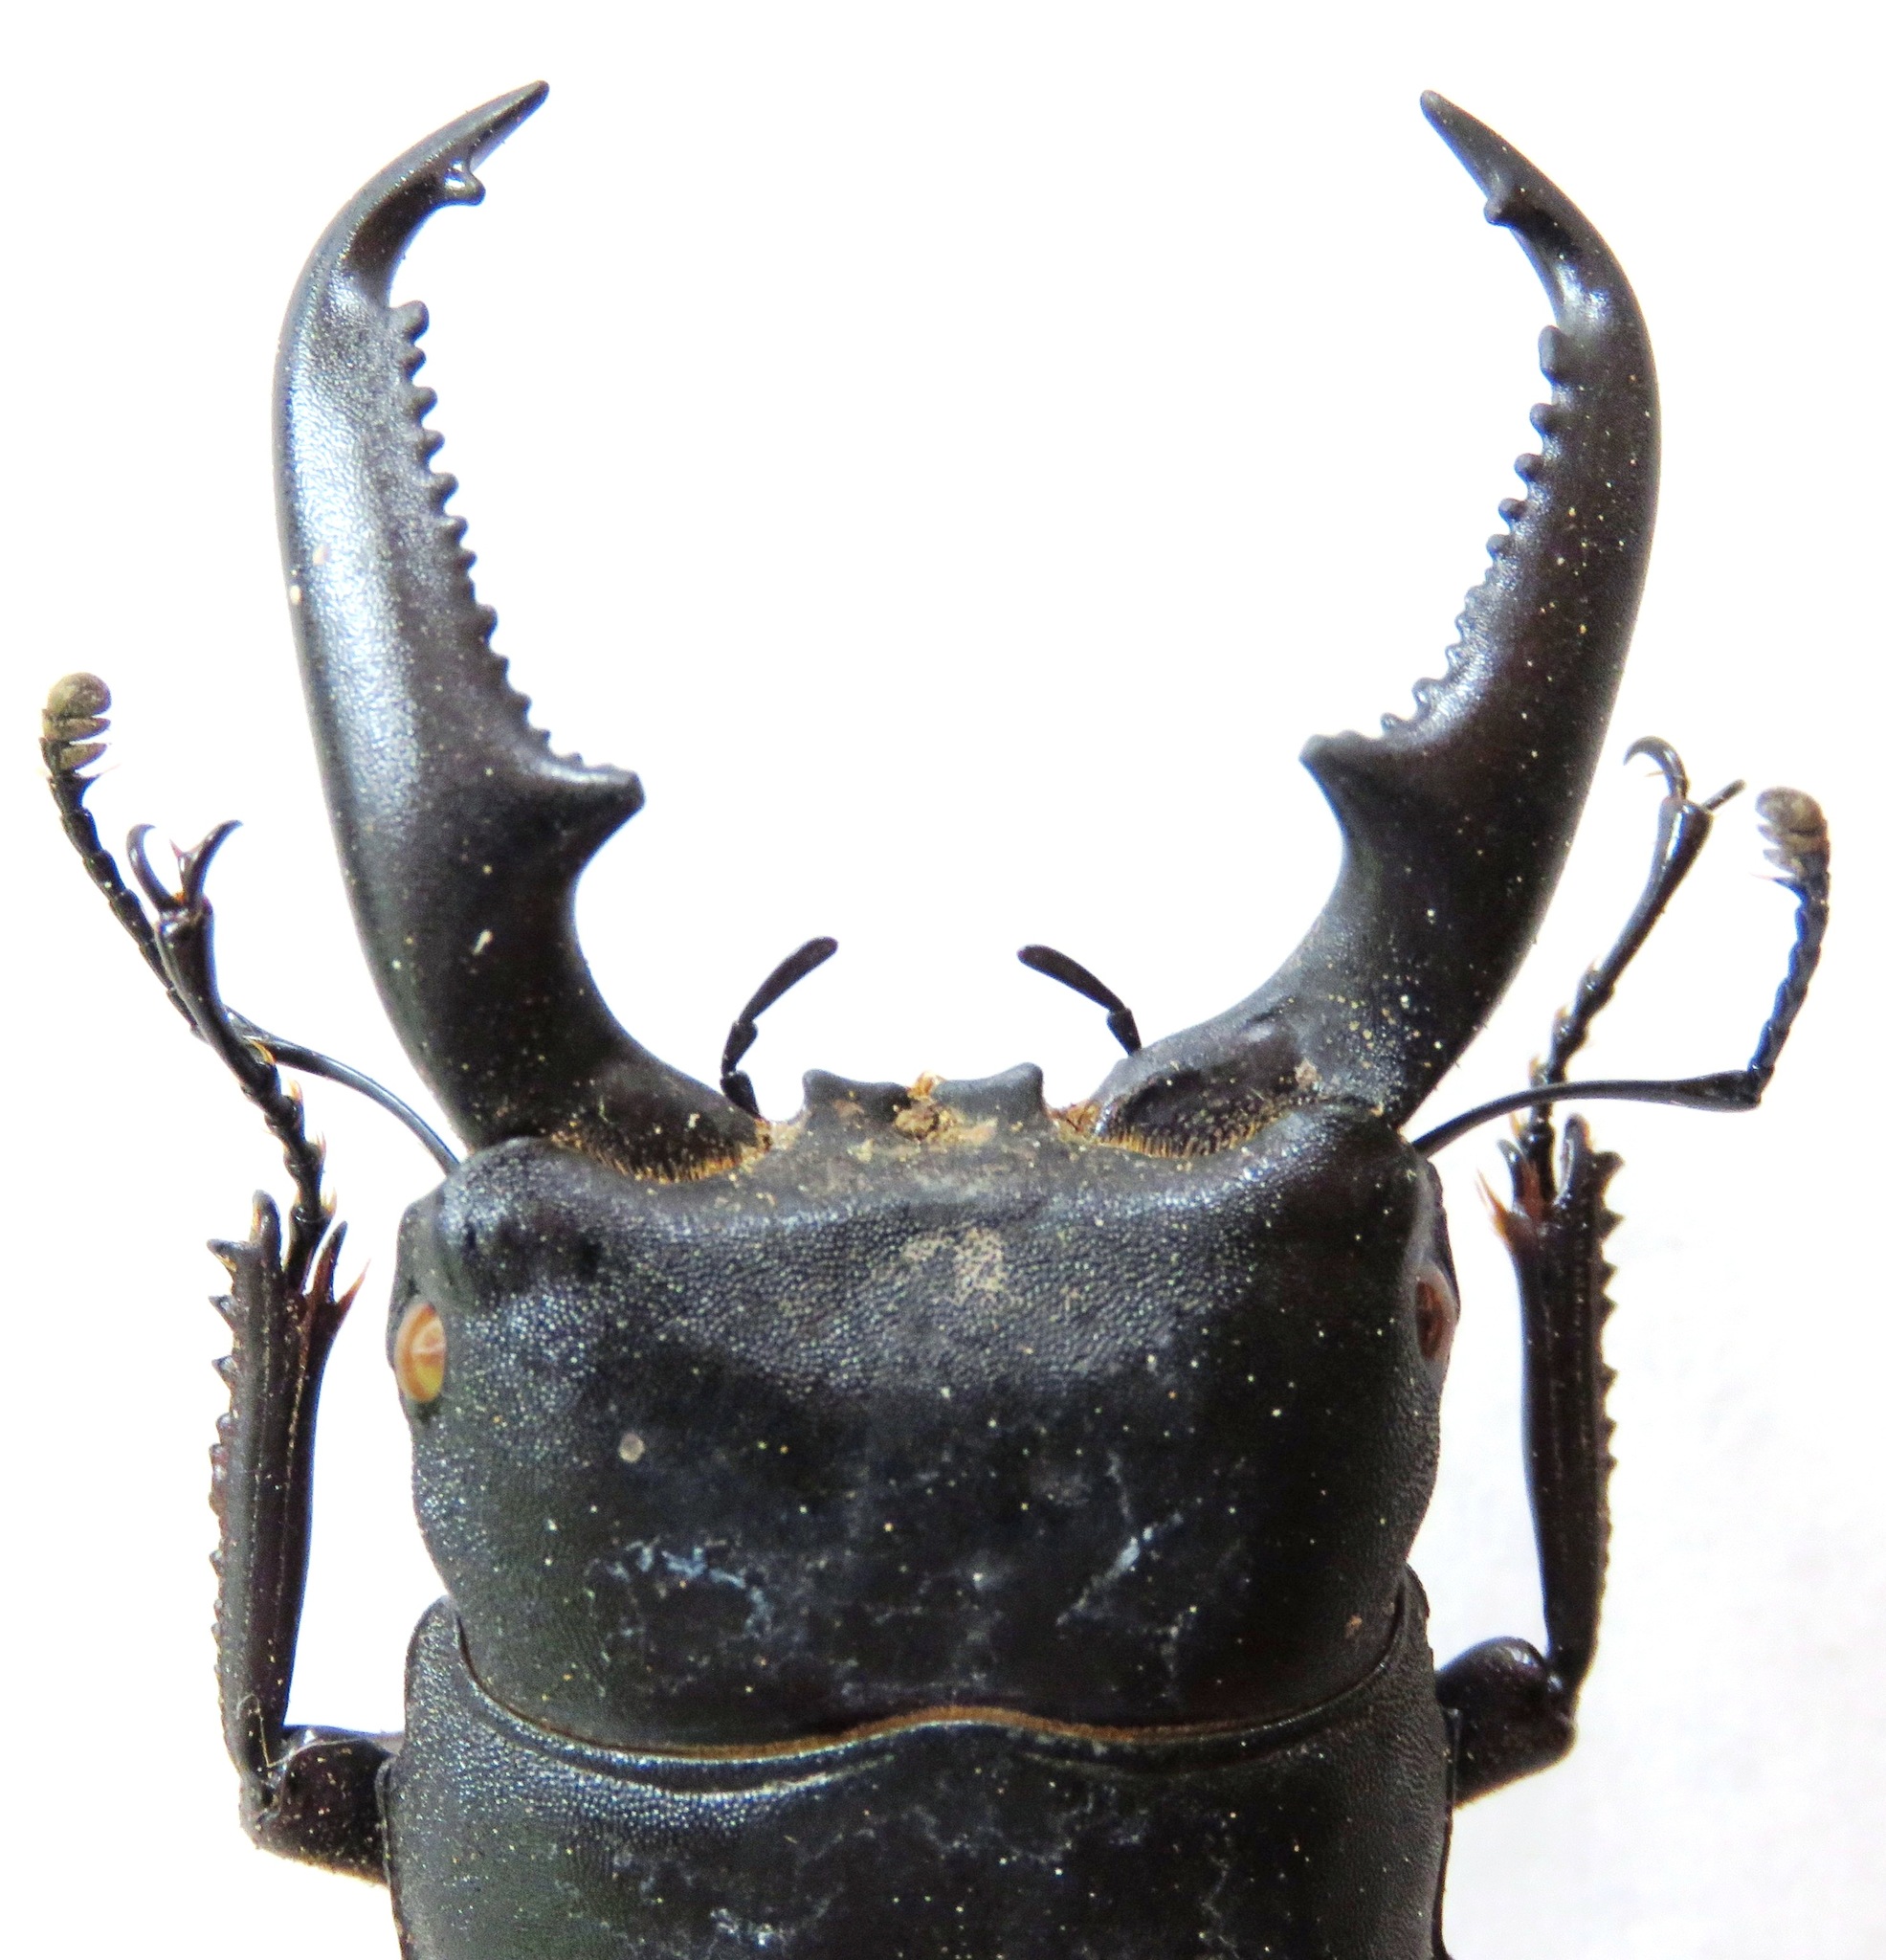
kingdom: Animalia
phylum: Arthropoda
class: Insecta
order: Coleoptera
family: Lucanidae
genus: Serrognathus
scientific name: Serrognathus titanus
